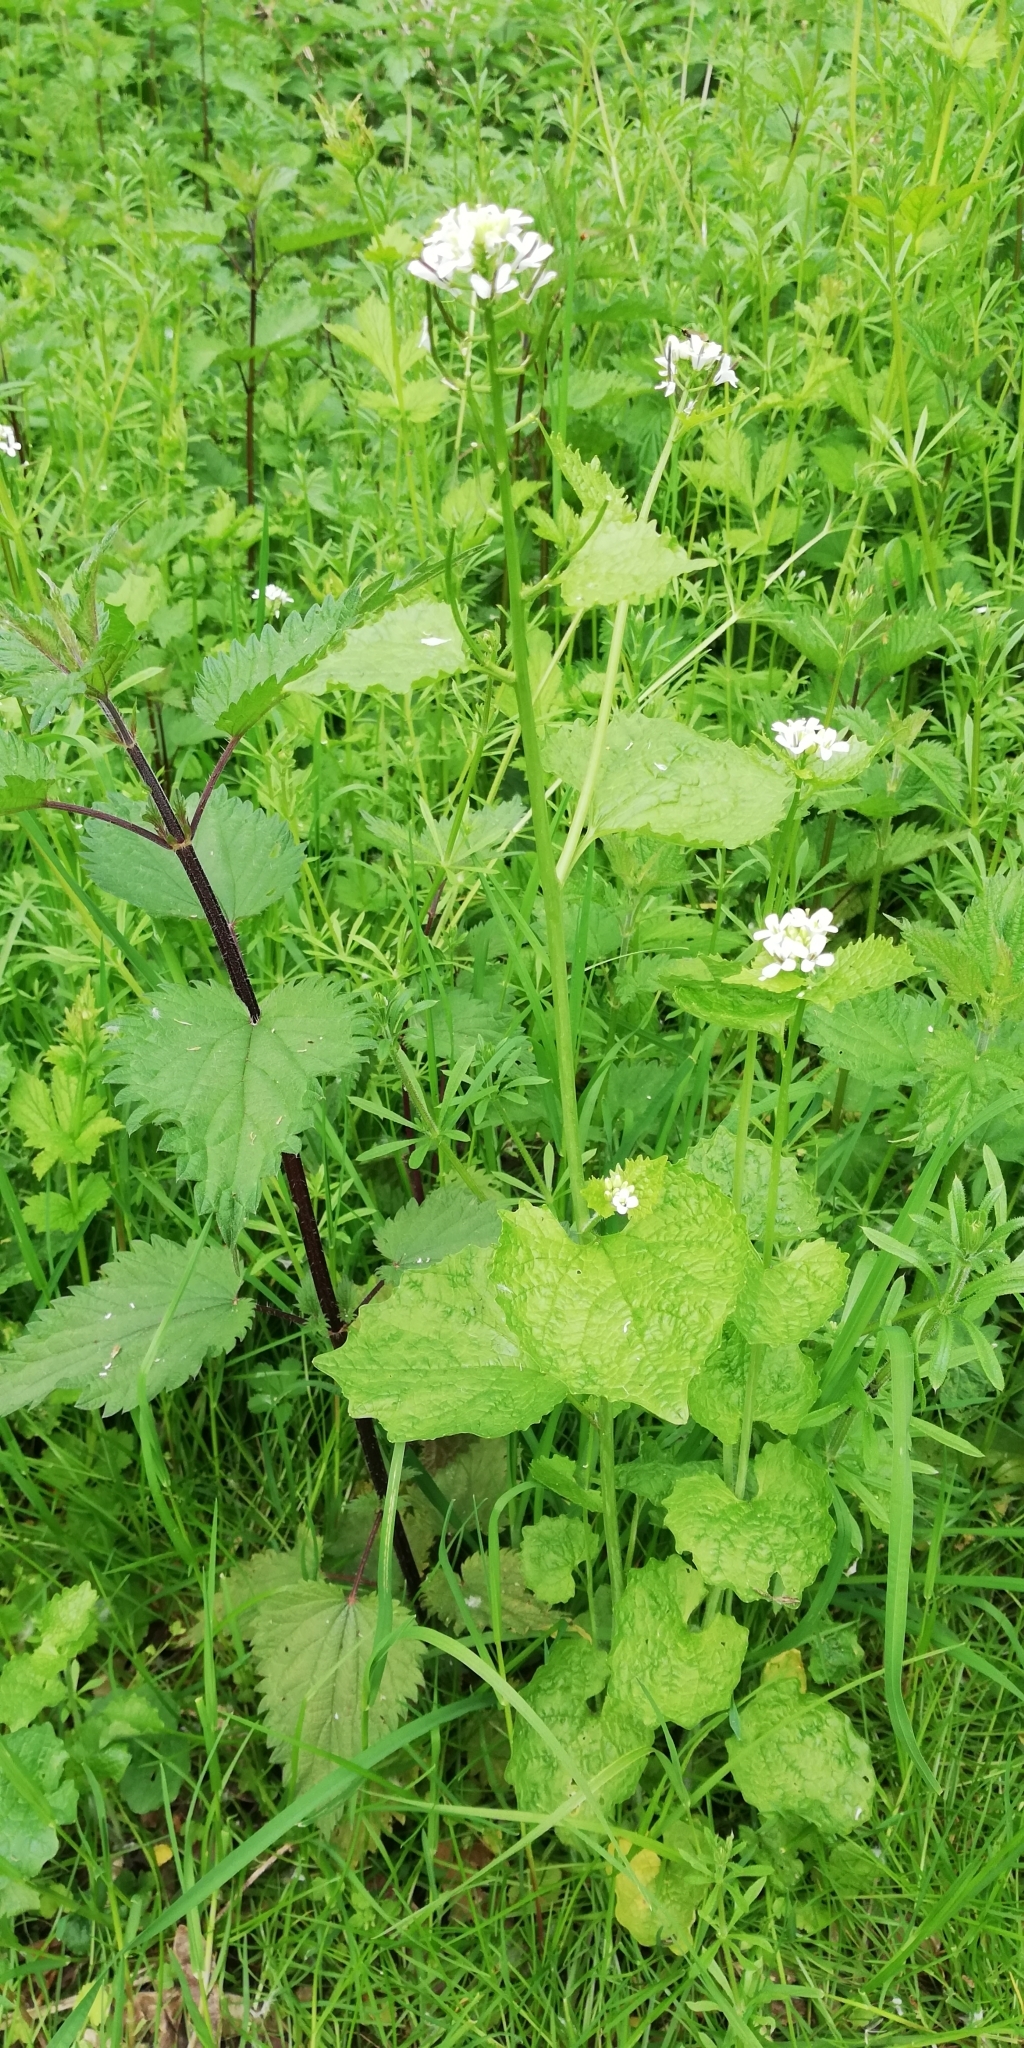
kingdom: Plantae
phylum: Tracheophyta
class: Magnoliopsida
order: Brassicales
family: Brassicaceae
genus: Alliaria
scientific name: Alliaria petiolata
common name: Garlic mustard
